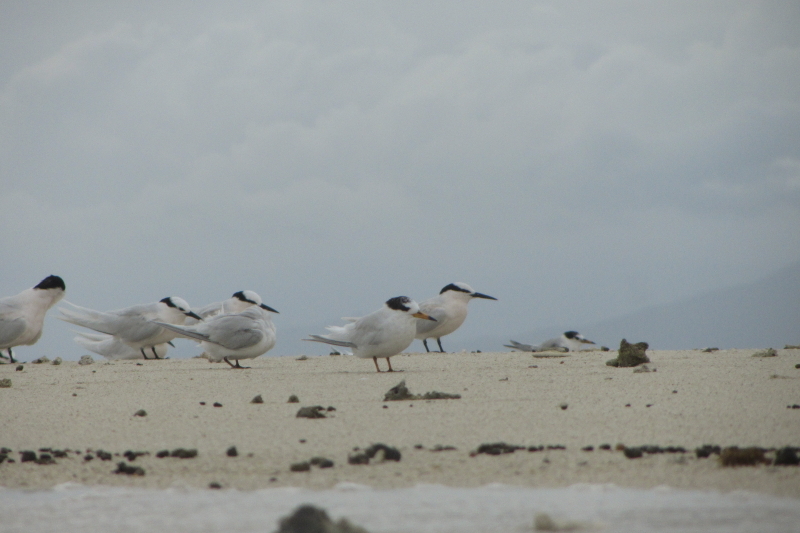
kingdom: Animalia
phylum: Chordata
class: Aves
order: Charadriiformes
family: Laridae
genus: Sternula
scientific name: Sternula nereis
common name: Fairy tern
